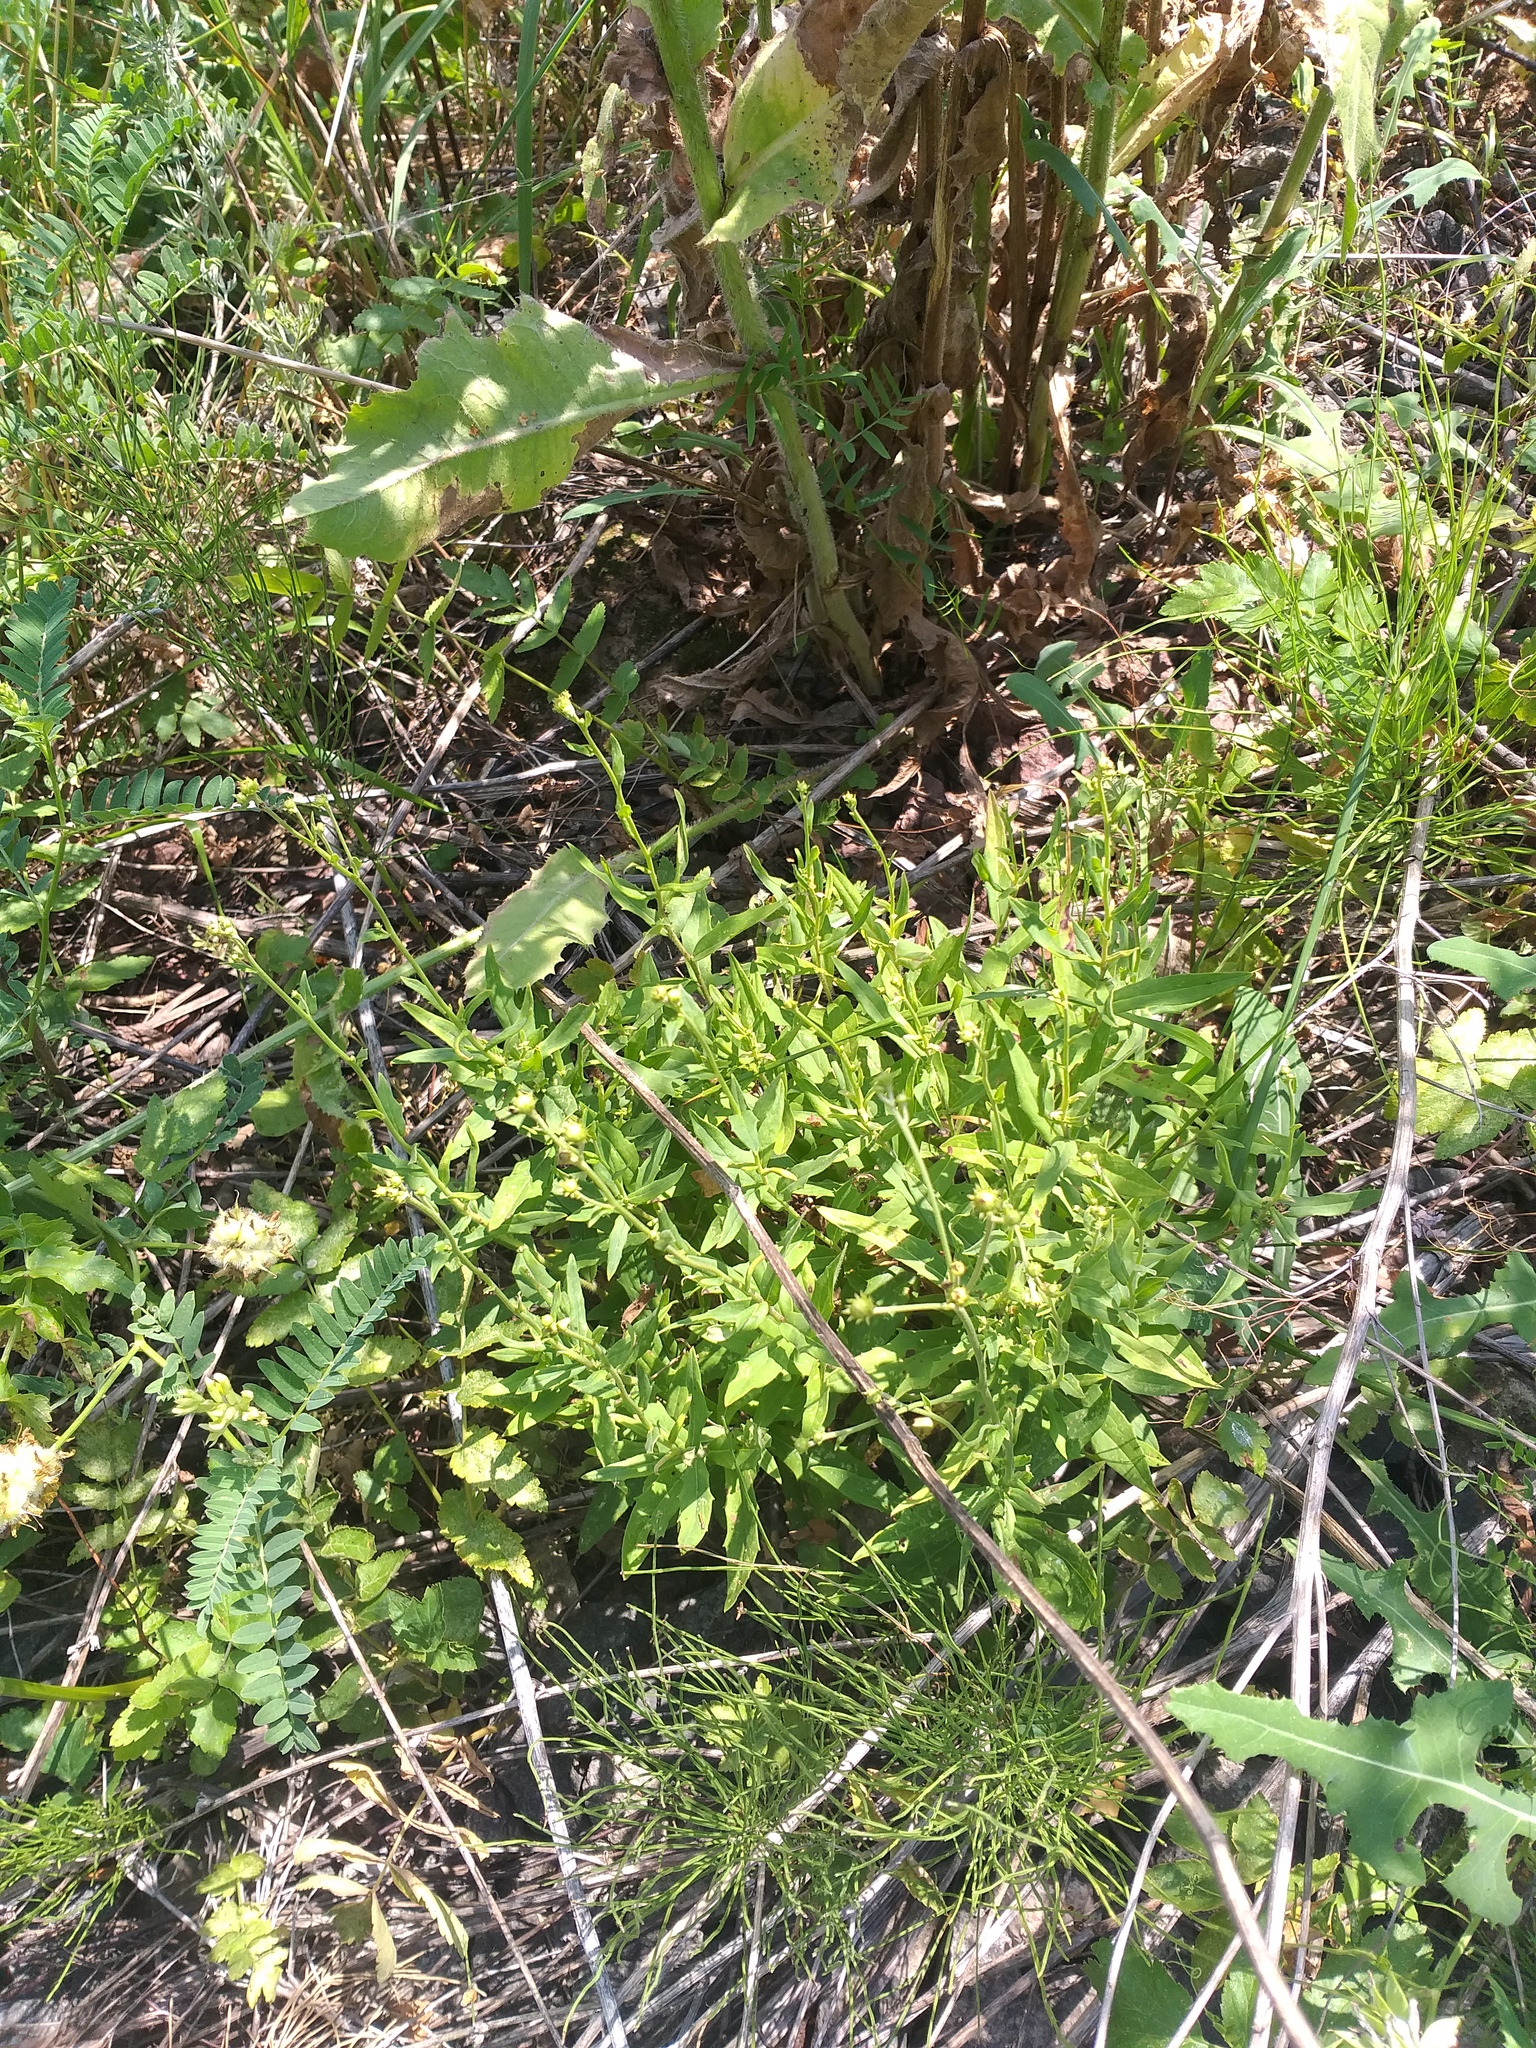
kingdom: Plantae
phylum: Tracheophyta
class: Magnoliopsida
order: Asterales
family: Asteraceae
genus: Hieracium
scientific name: Hieracium umbellatum
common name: Northern hawkweed
